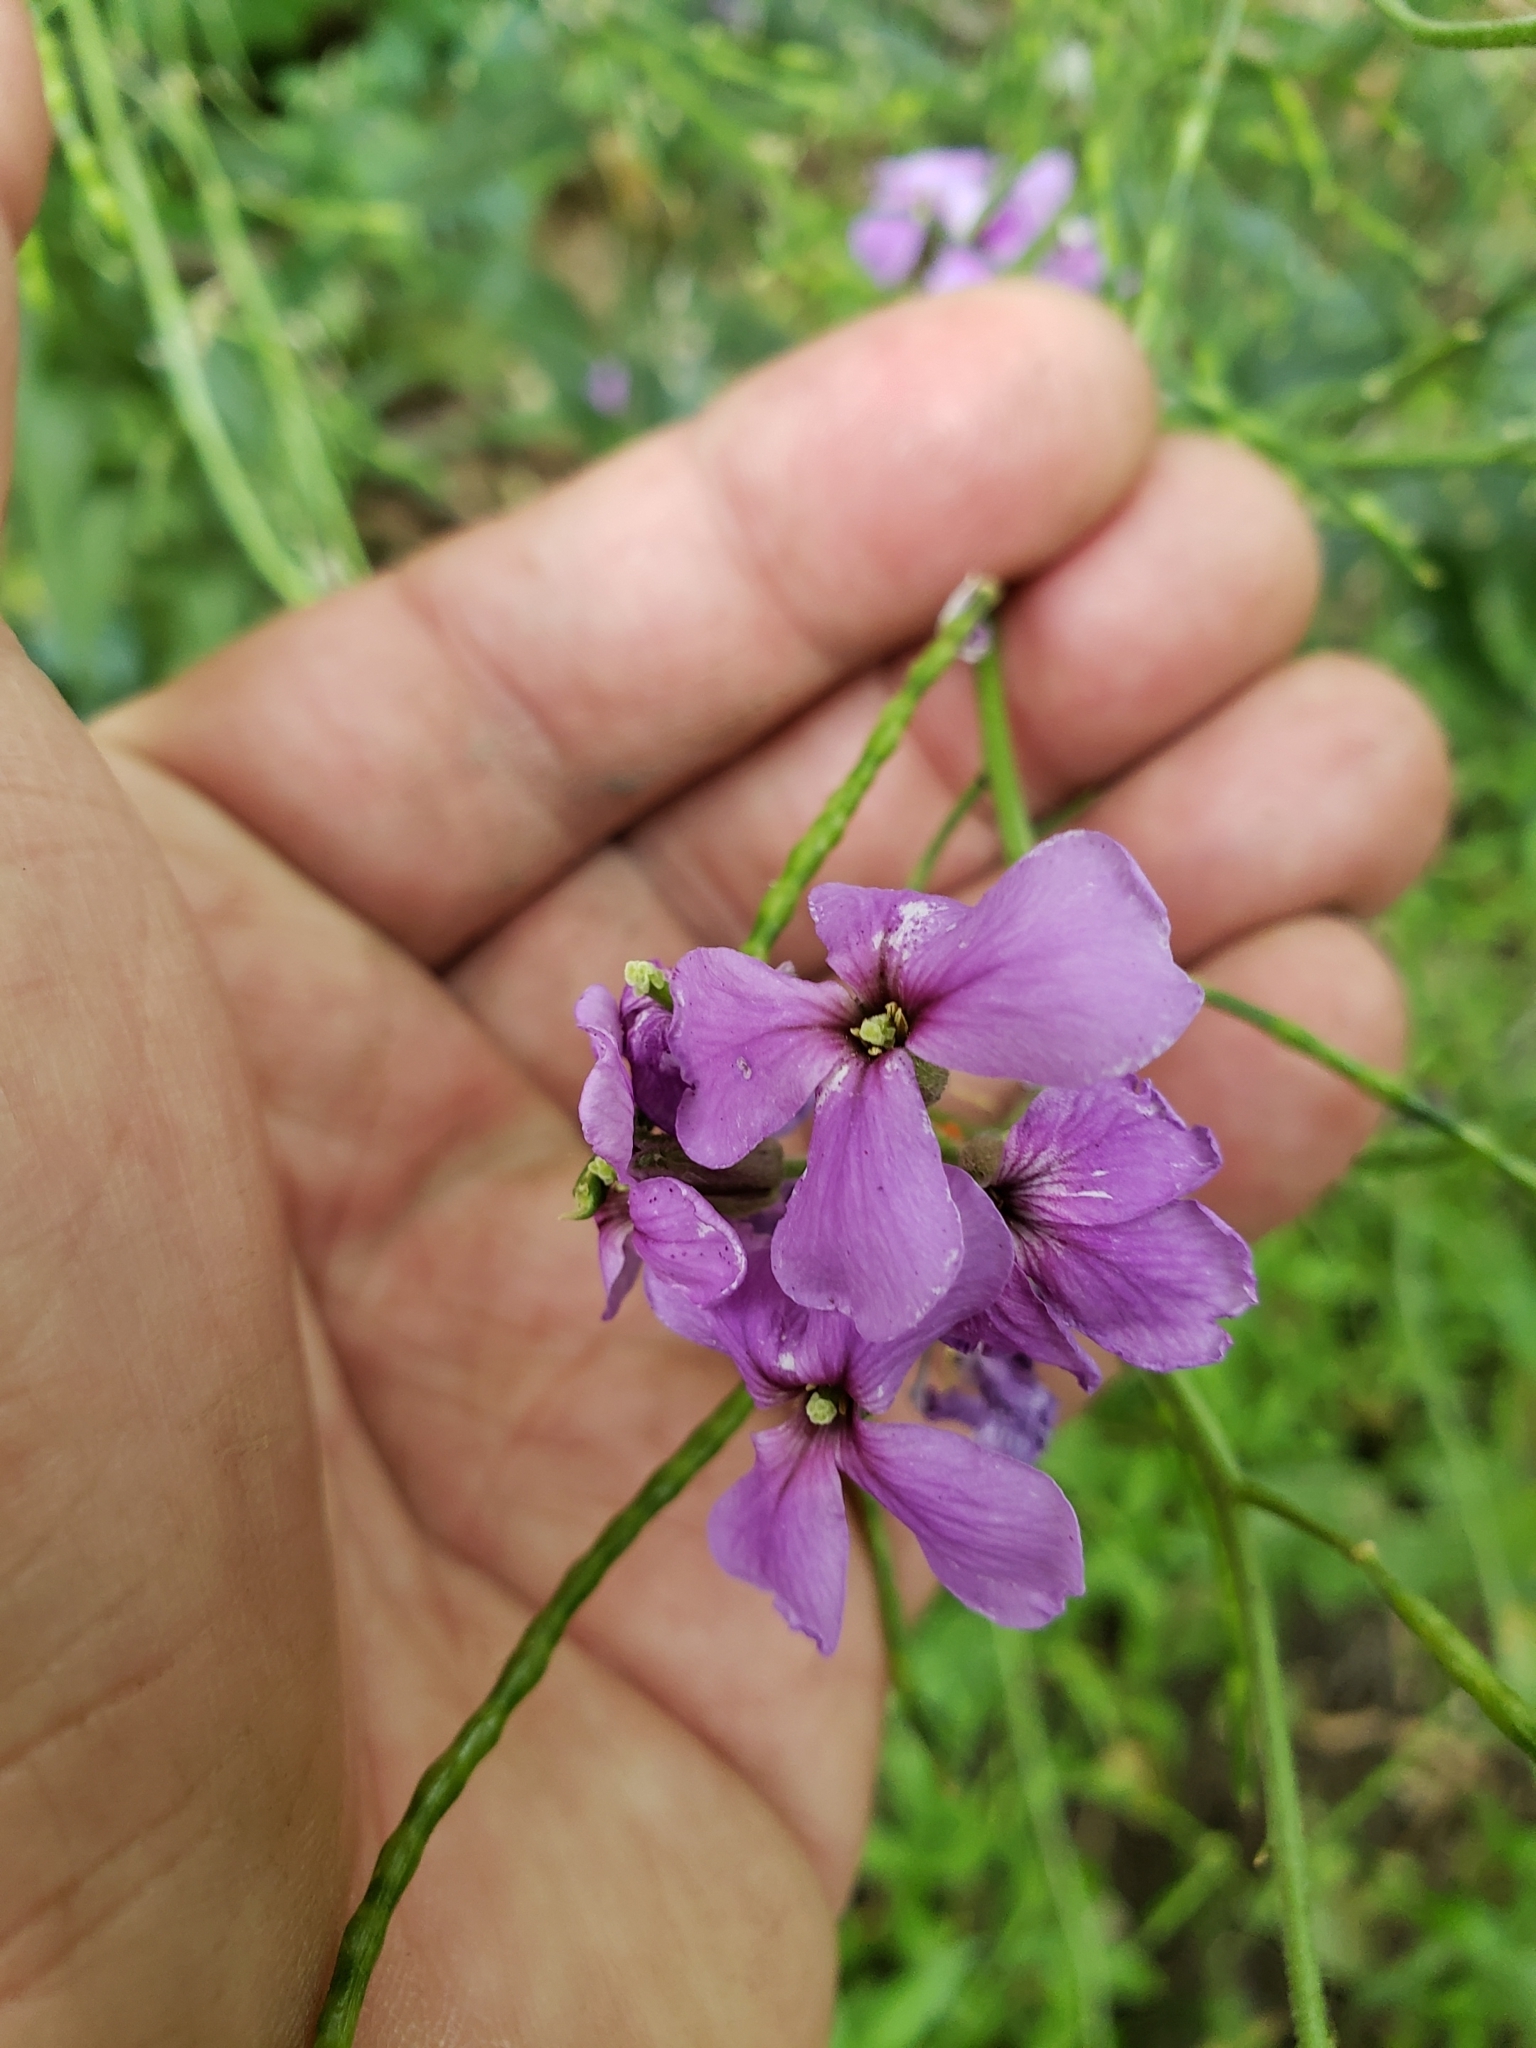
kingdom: Plantae
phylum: Tracheophyta
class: Magnoliopsida
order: Brassicales
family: Brassicaceae
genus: Hesperis
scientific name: Hesperis matronalis
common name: Dame's-violet
